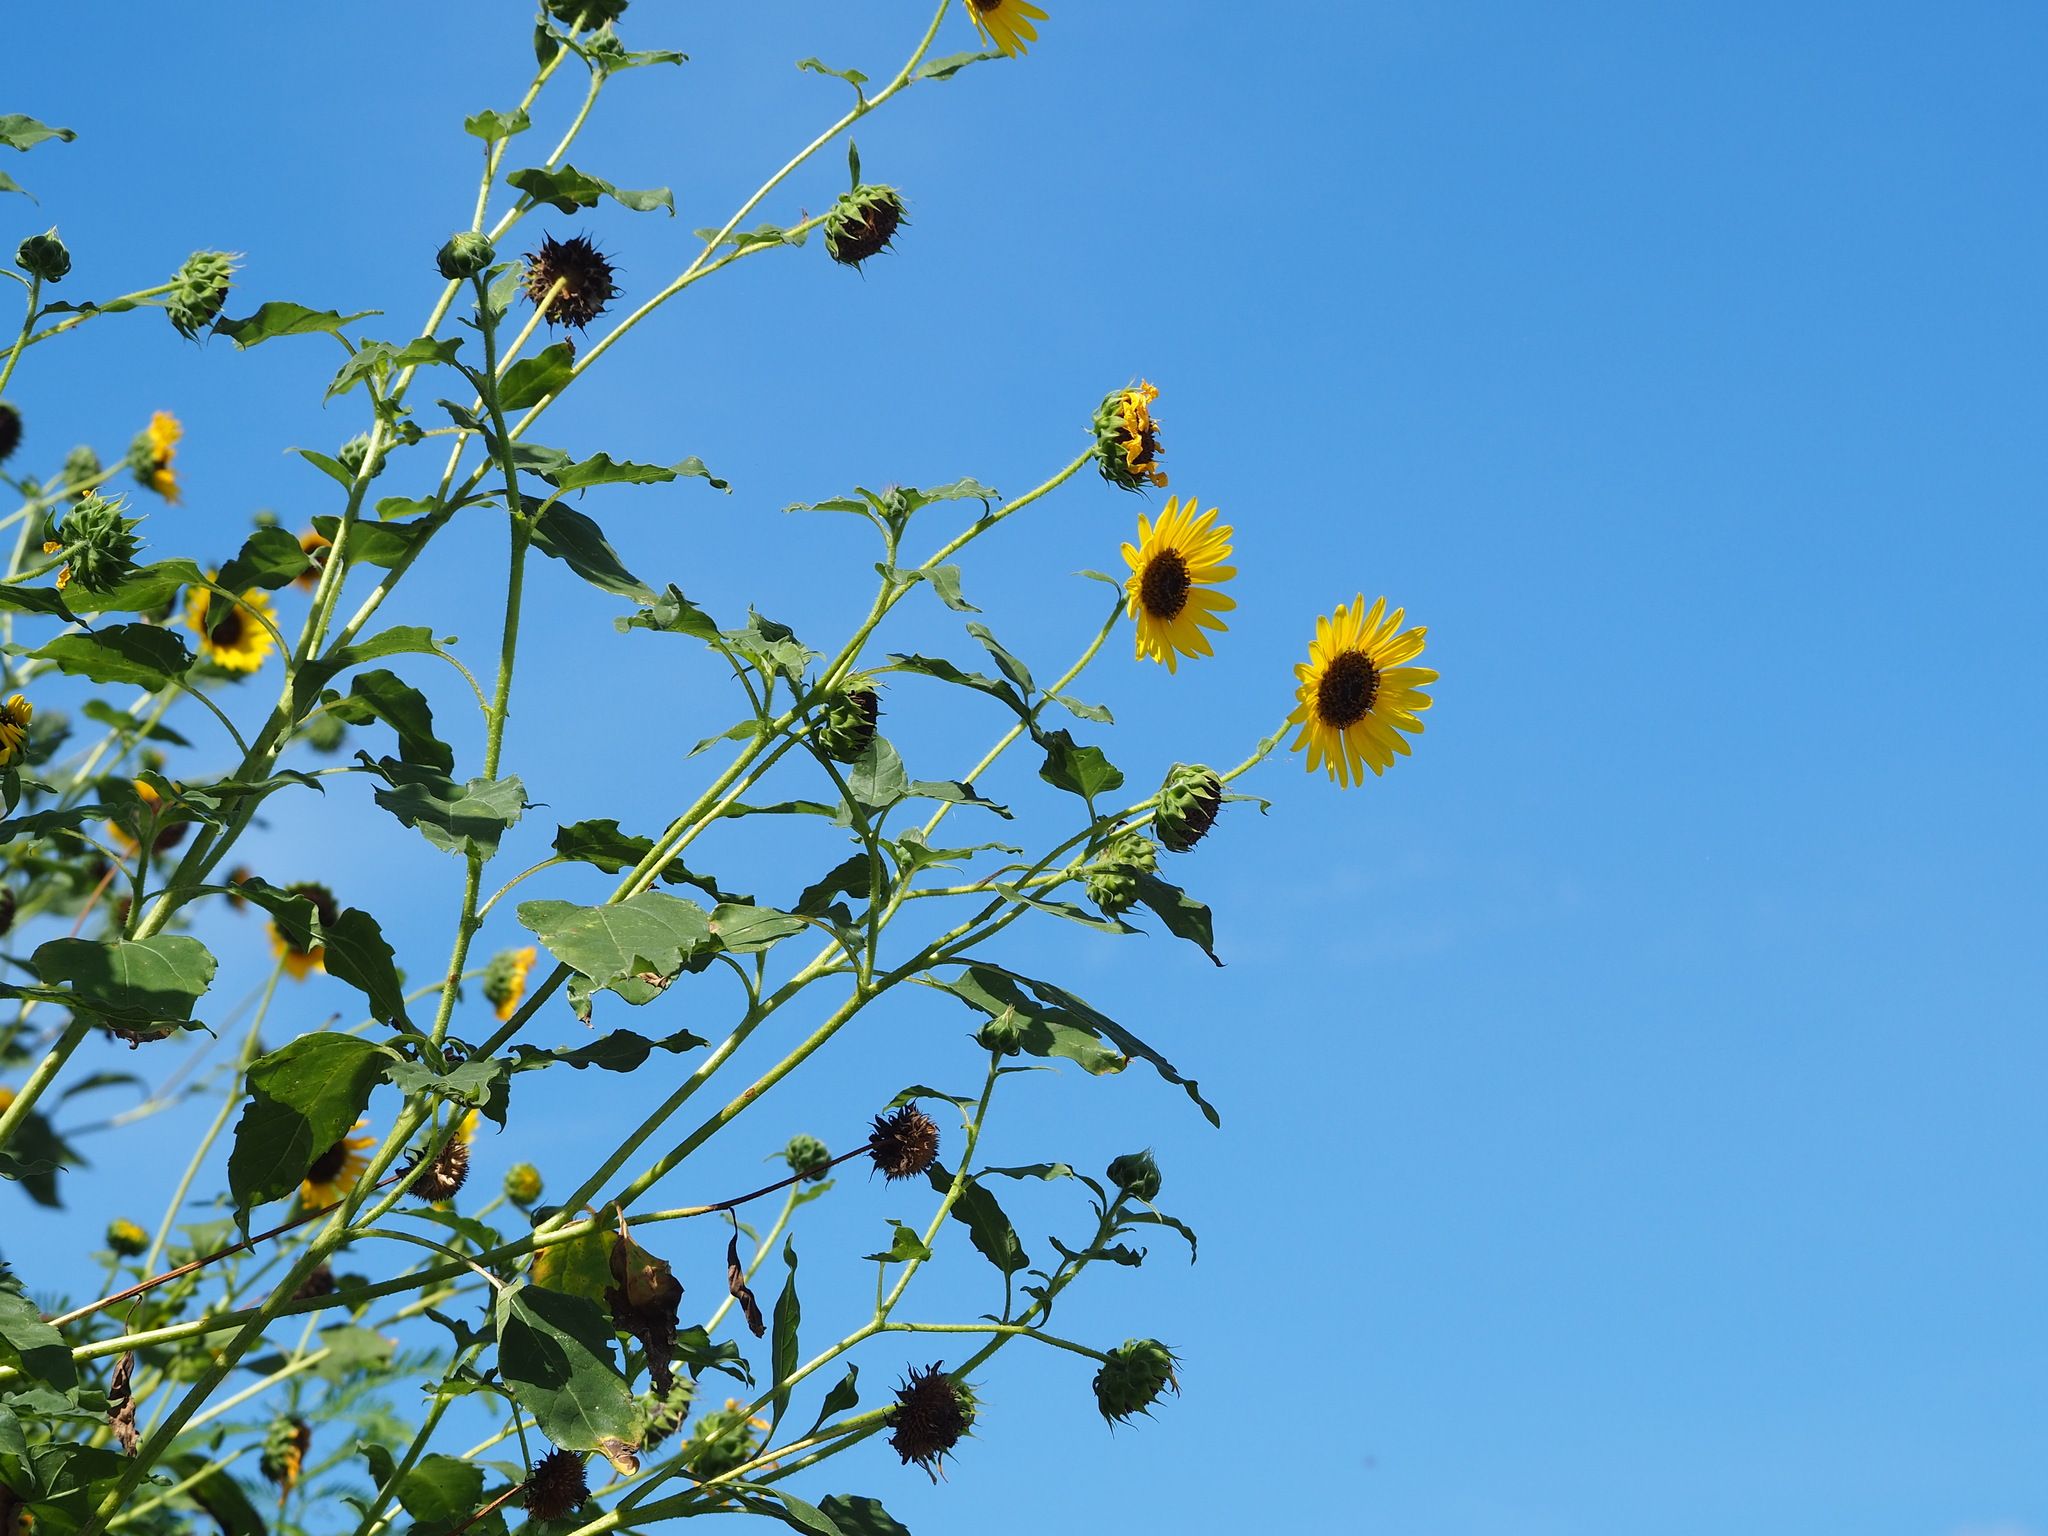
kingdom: Plantae
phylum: Tracheophyta
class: Magnoliopsida
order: Asterales
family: Asteraceae
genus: Helianthus
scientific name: Helianthus debilis
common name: Weak sunflower
